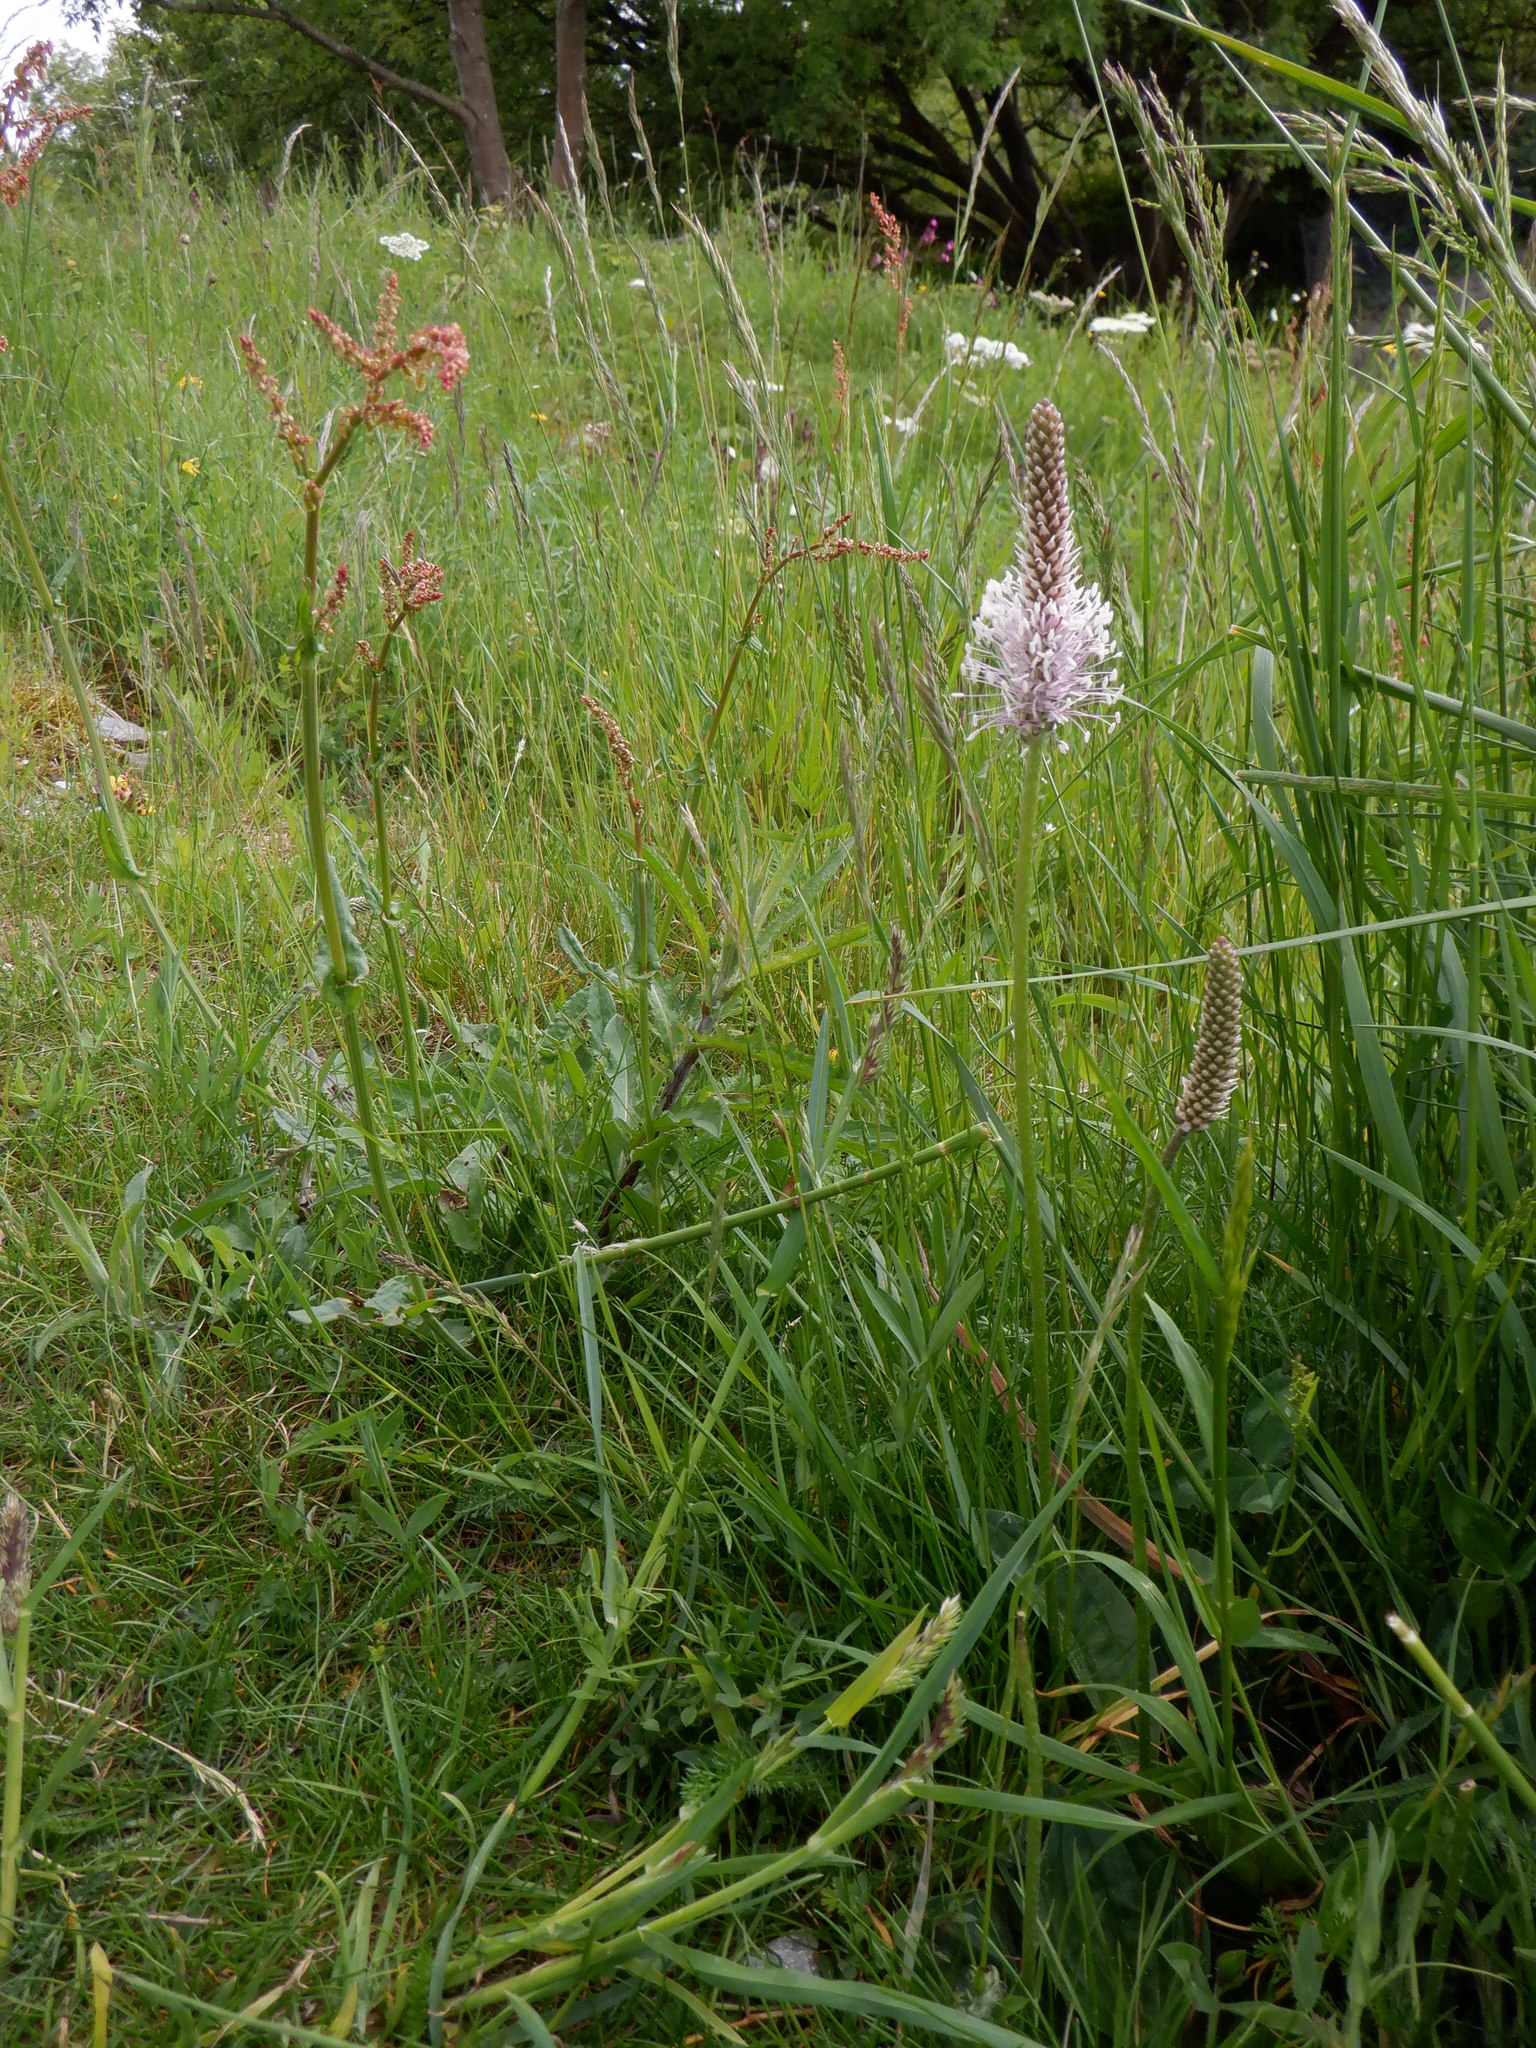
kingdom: Plantae
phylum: Tracheophyta
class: Magnoliopsida
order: Lamiales
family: Plantaginaceae
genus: Plantago
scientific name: Plantago media
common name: Hoary plantain
